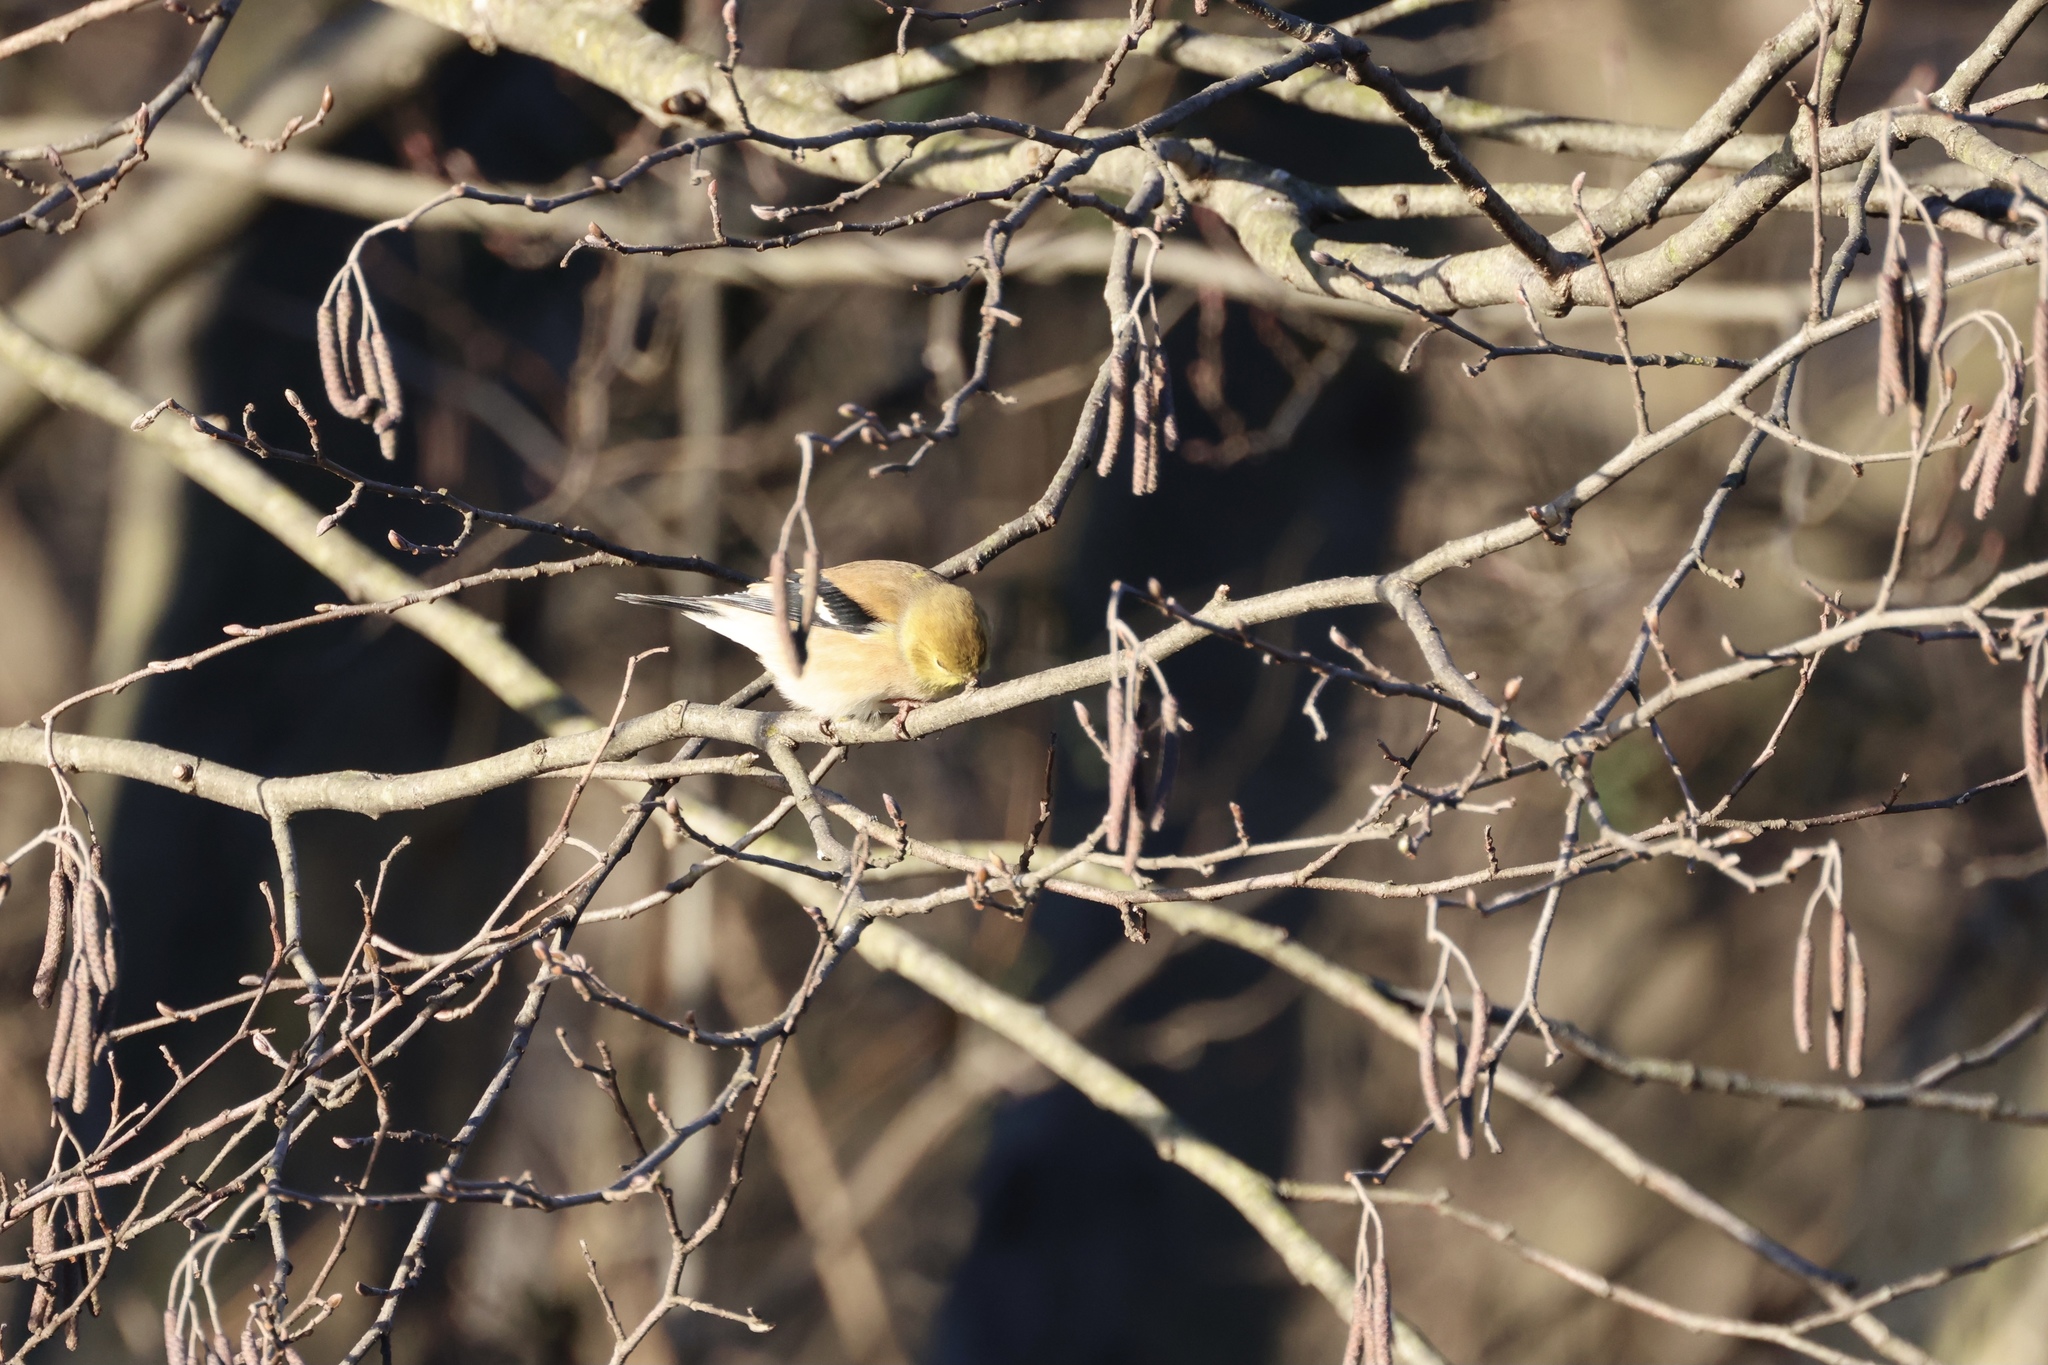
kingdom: Animalia
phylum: Chordata
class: Aves
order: Passeriformes
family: Fringillidae
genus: Spinus
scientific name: Spinus tristis
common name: American goldfinch
